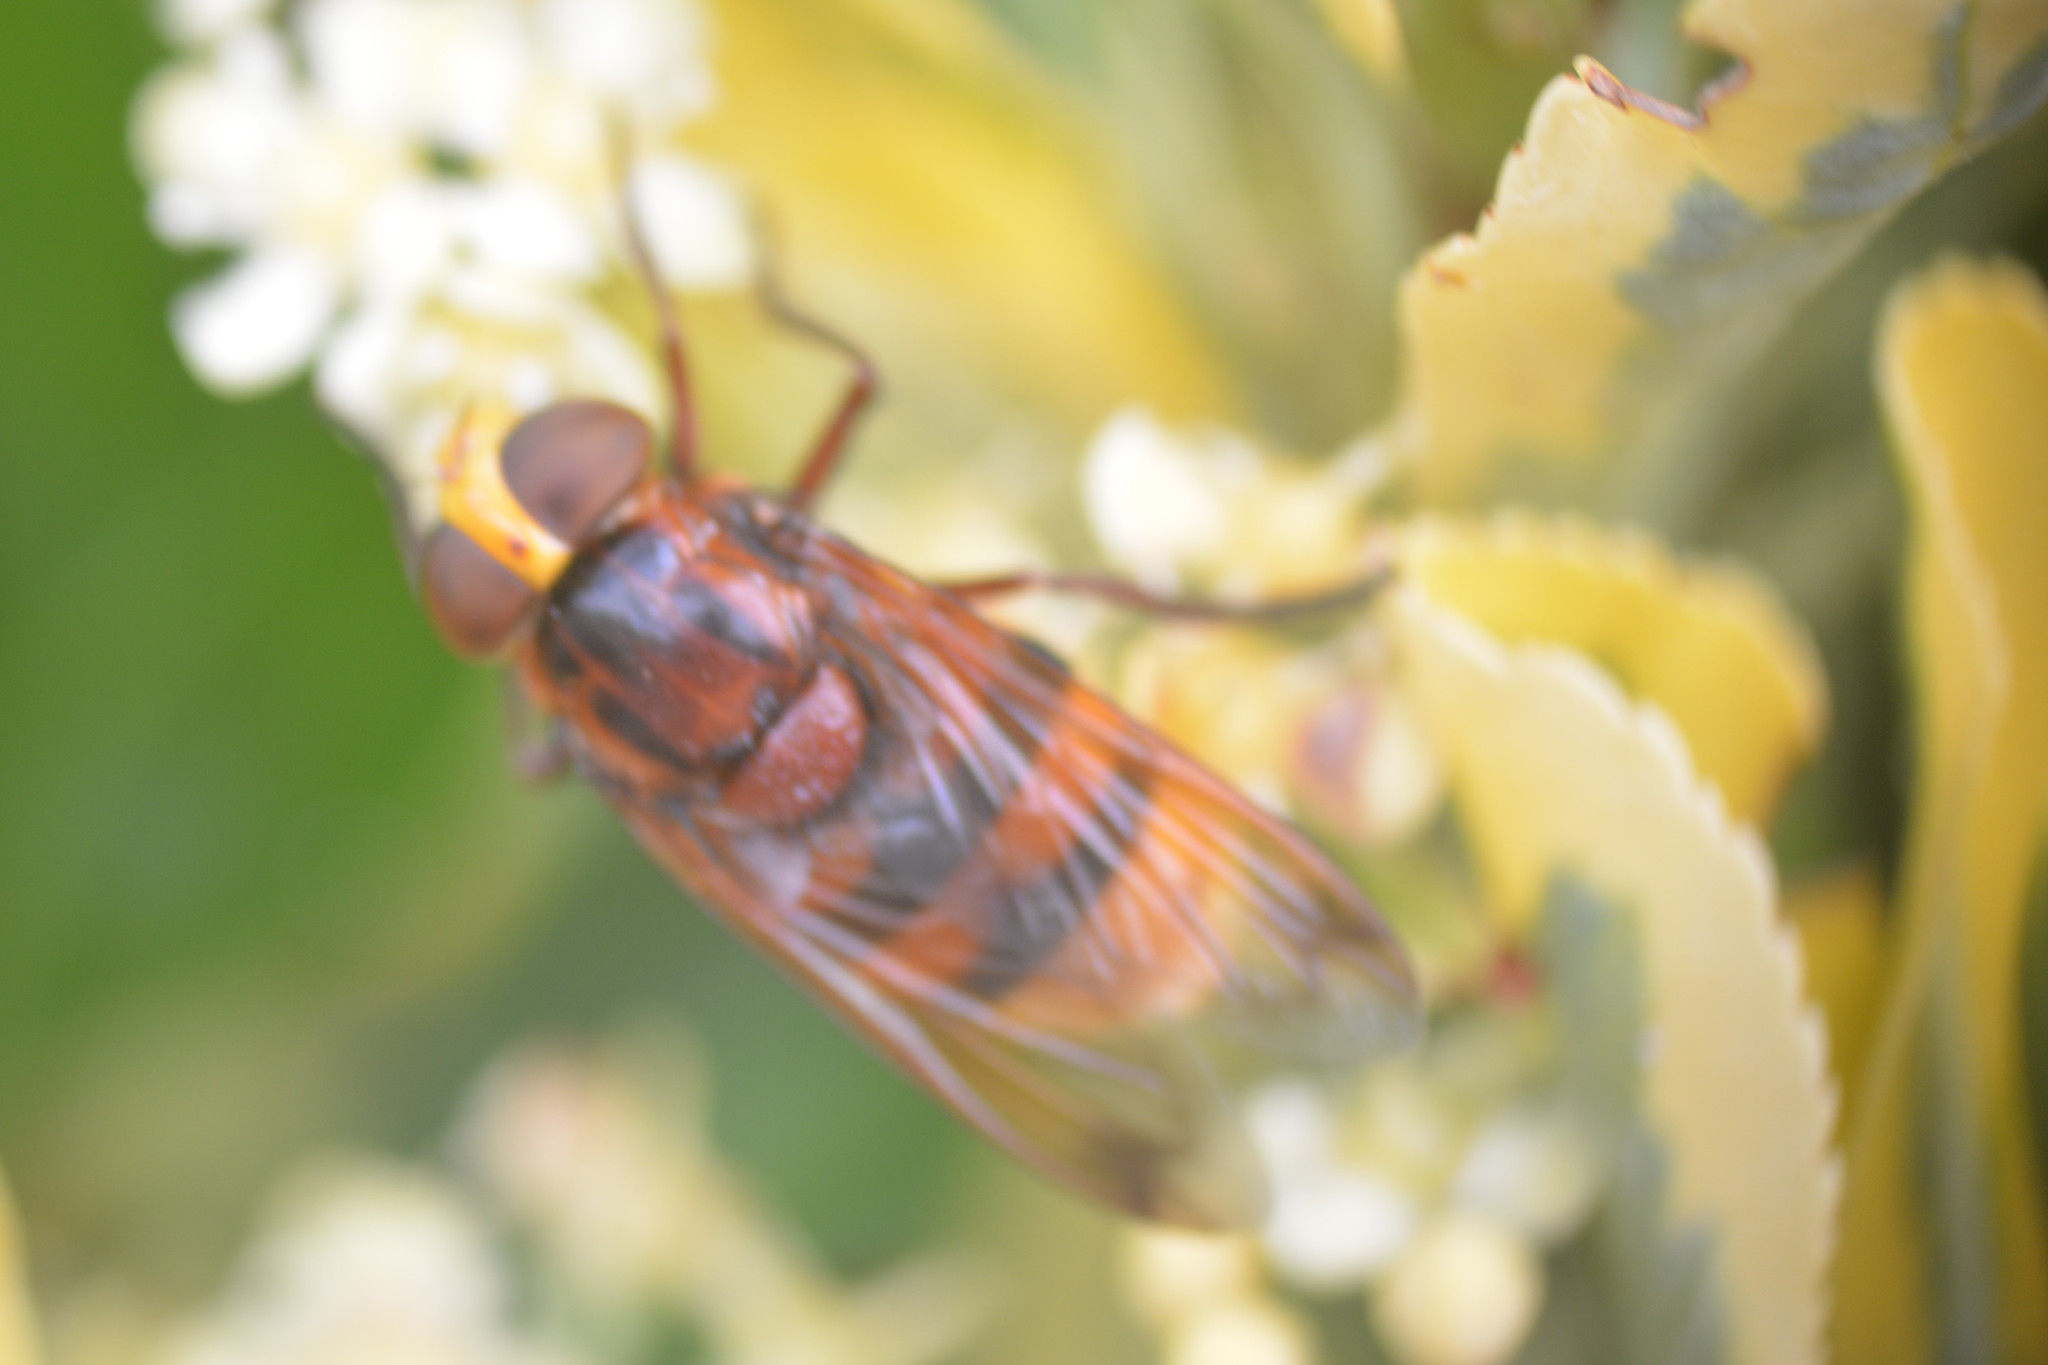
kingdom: Animalia
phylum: Arthropoda
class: Insecta
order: Diptera
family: Syrphidae
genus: Volucella
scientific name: Volucella zonaria
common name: Hornet hoverfly
